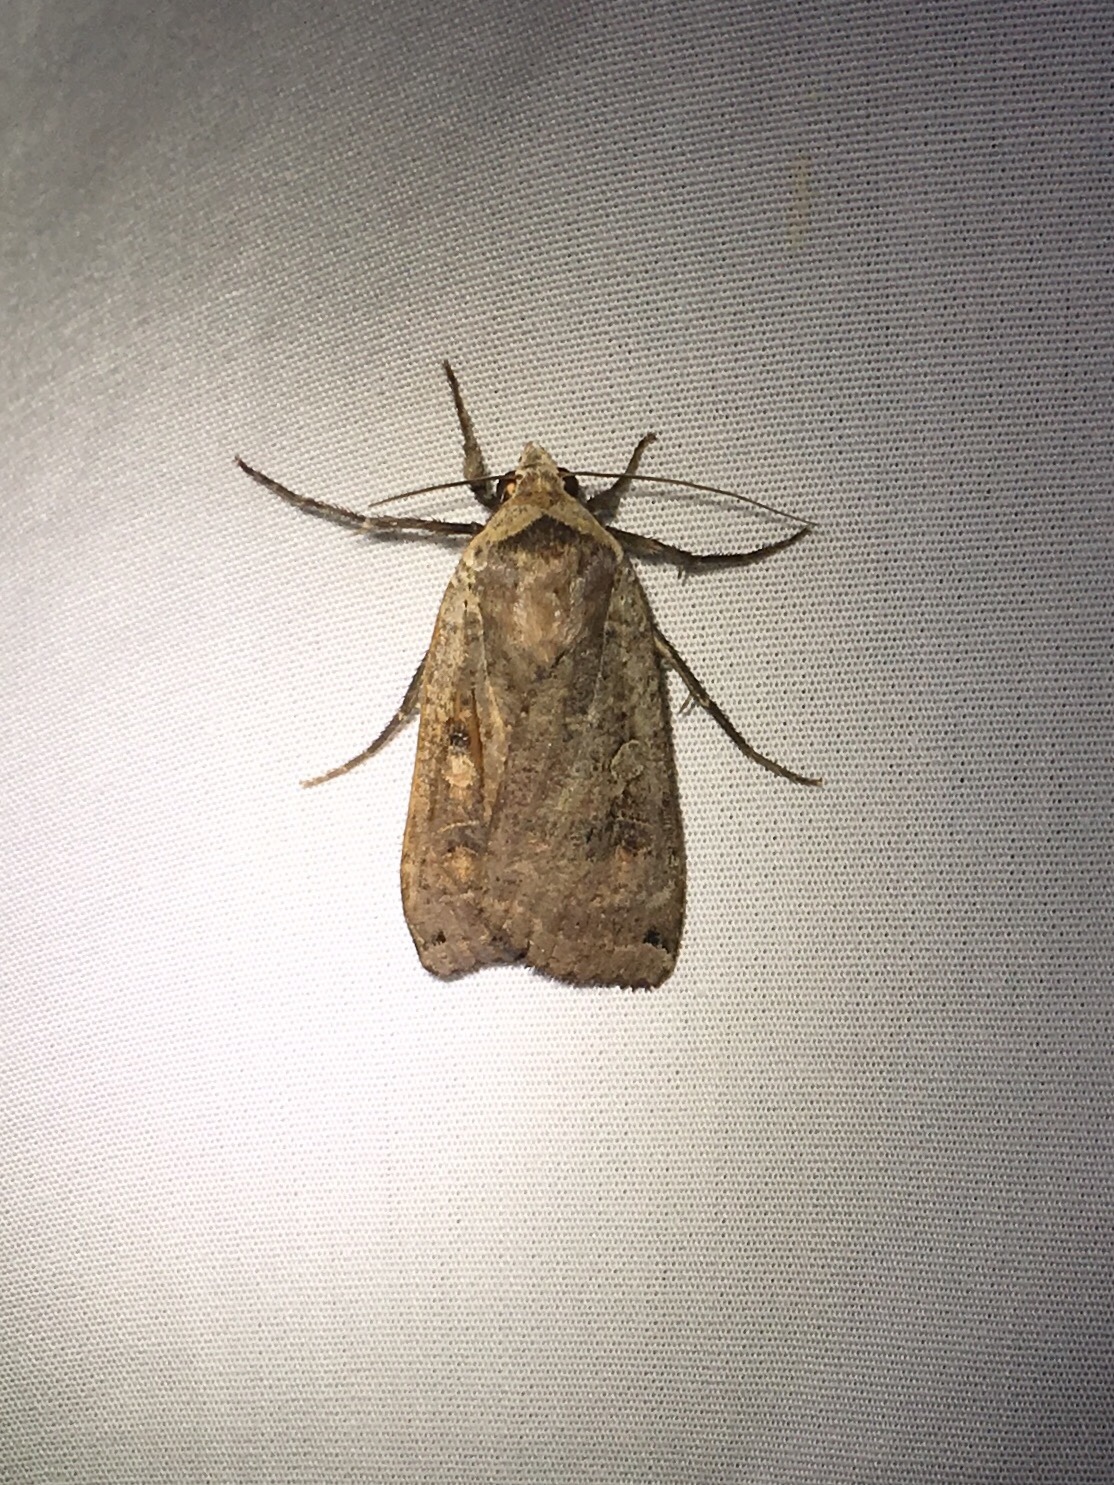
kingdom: Animalia
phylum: Arthropoda
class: Insecta
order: Lepidoptera
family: Noctuidae
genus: Noctua
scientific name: Noctua pronuba
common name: Large yellow underwing
